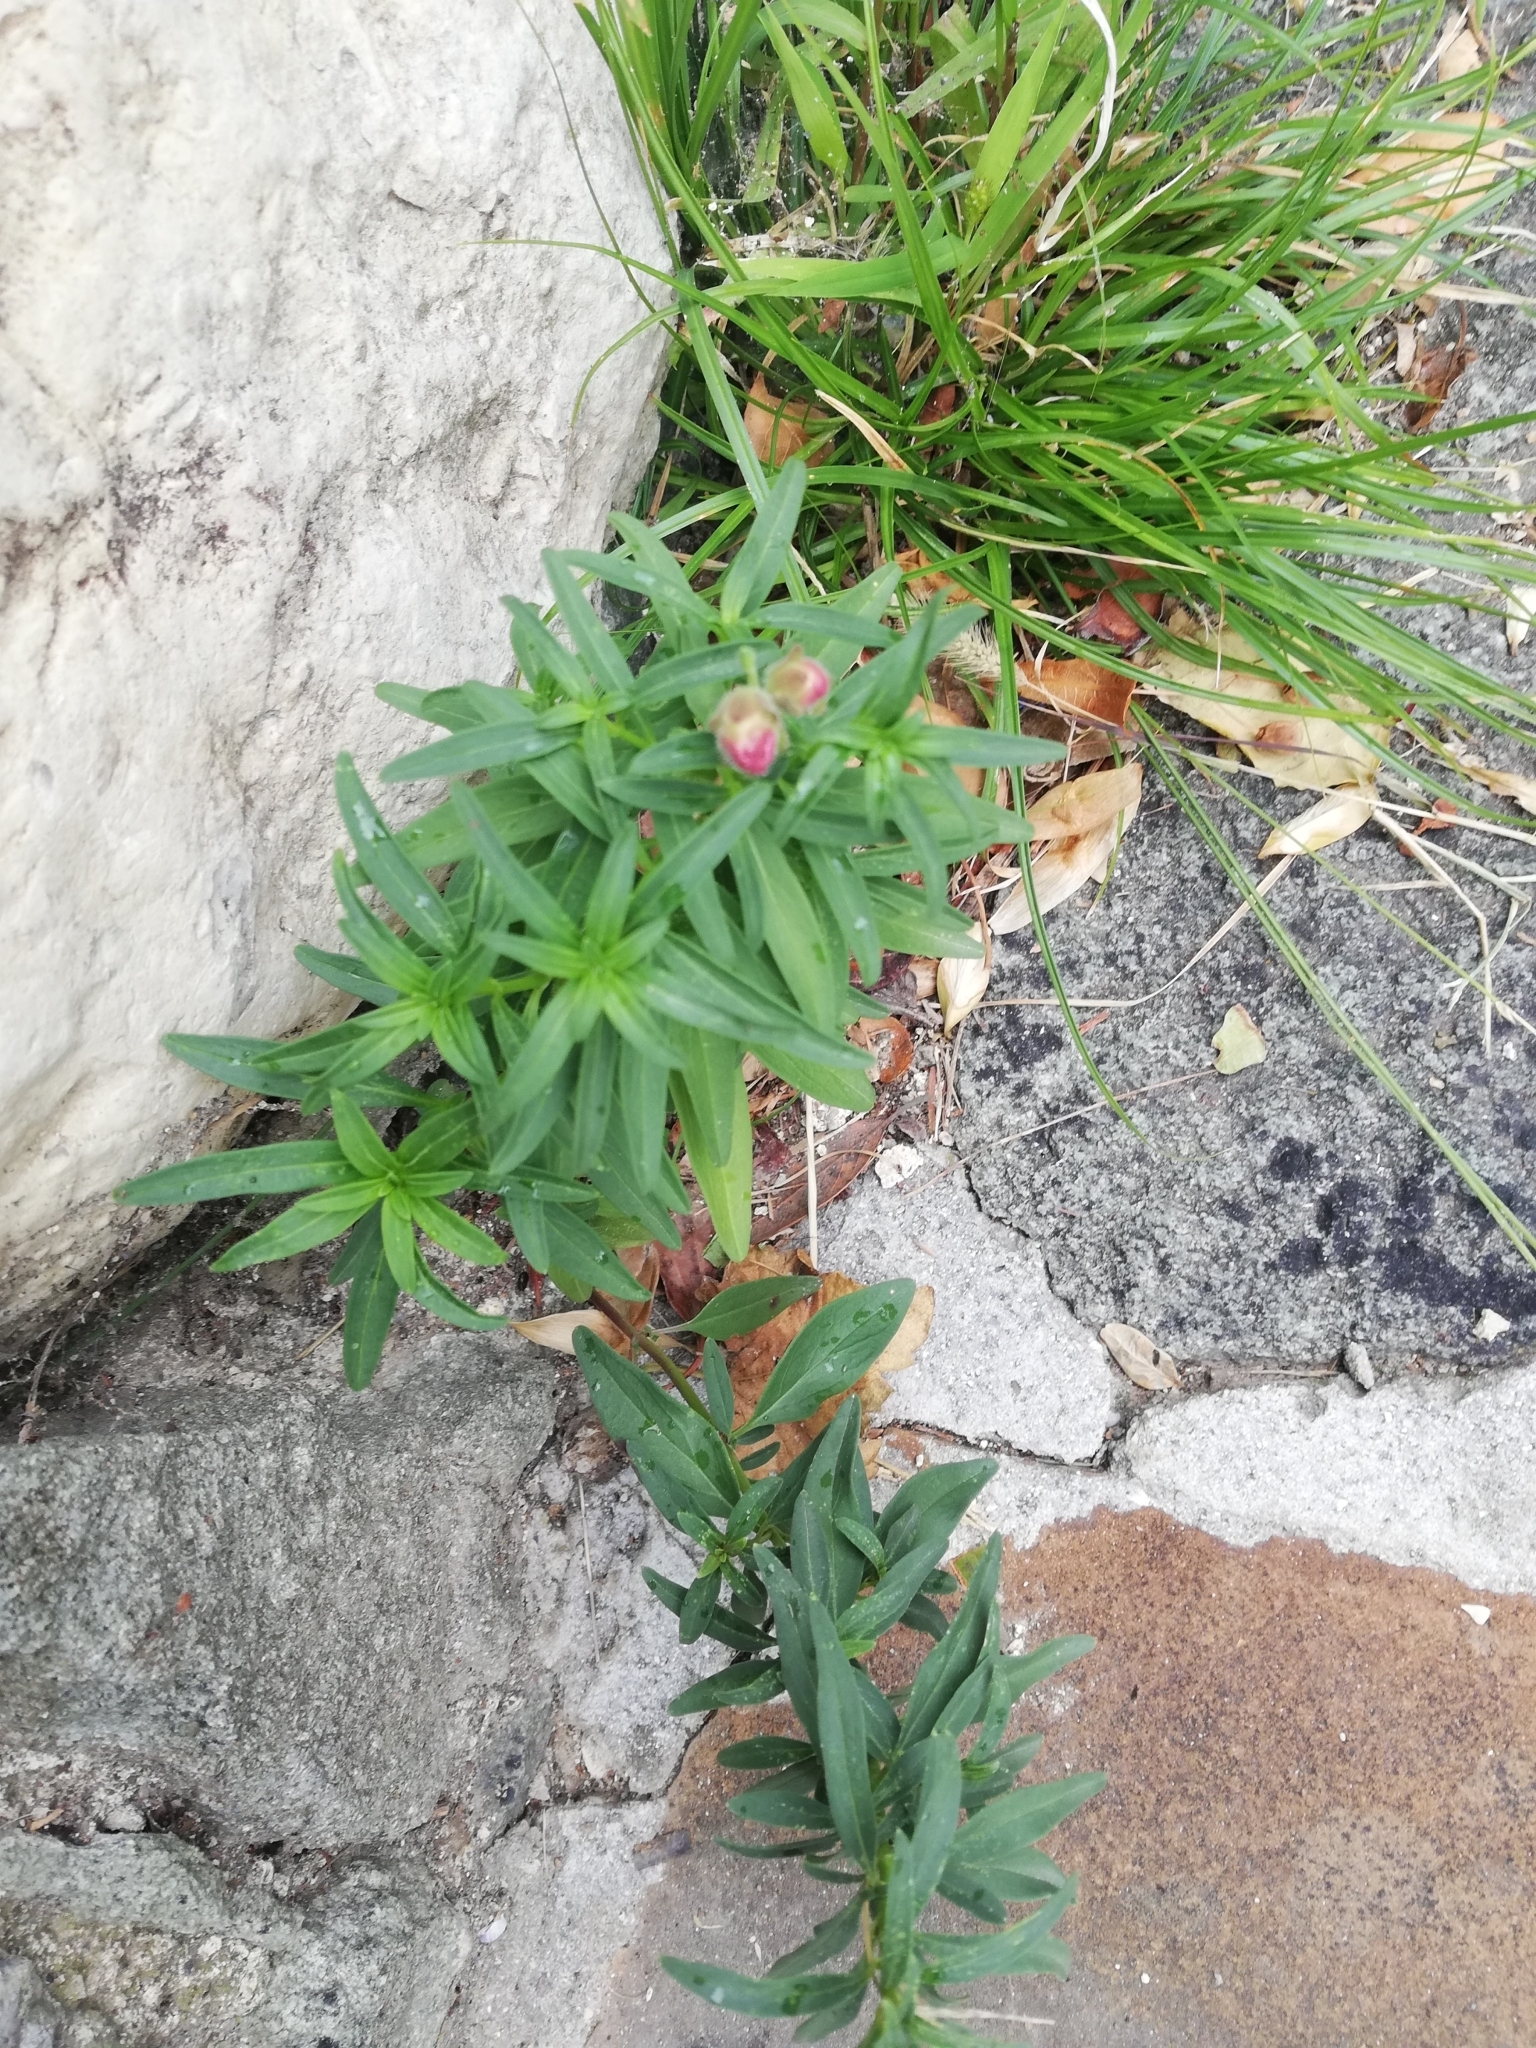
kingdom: Plantae
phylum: Tracheophyta
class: Magnoliopsida
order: Lamiales
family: Plantaginaceae
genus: Antirrhinum
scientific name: Antirrhinum majus
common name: Snapdragon
